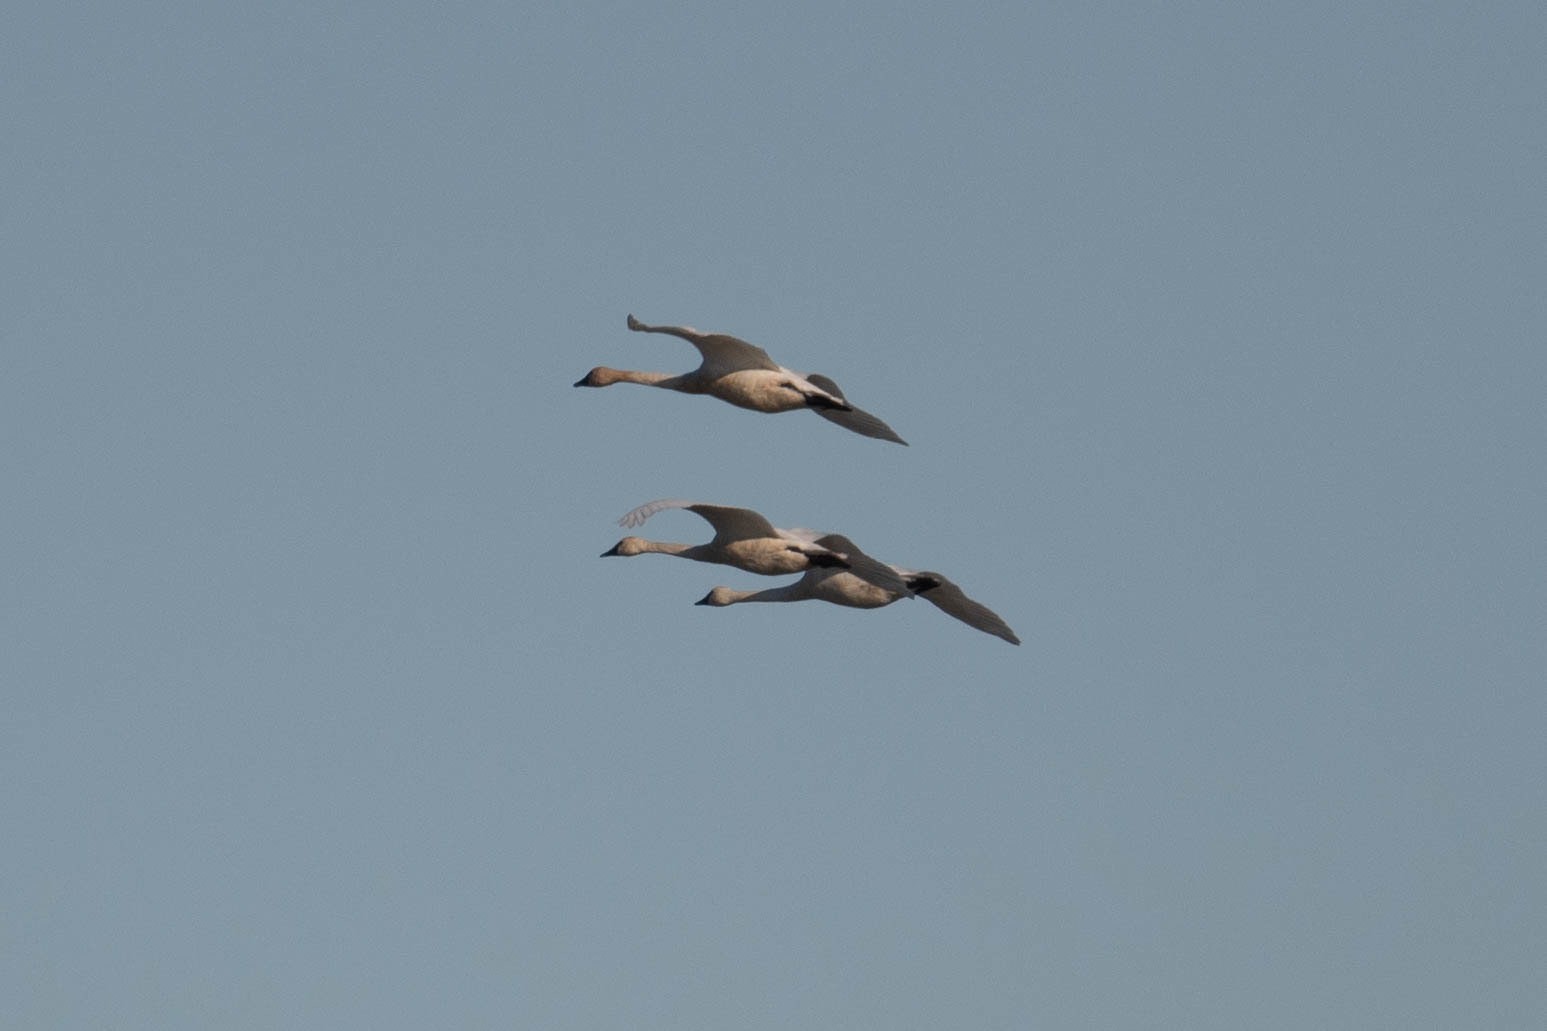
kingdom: Animalia
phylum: Chordata
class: Aves
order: Anseriformes
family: Anatidae
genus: Cygnus
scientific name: Cygnus columbianus
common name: Tundra swan
